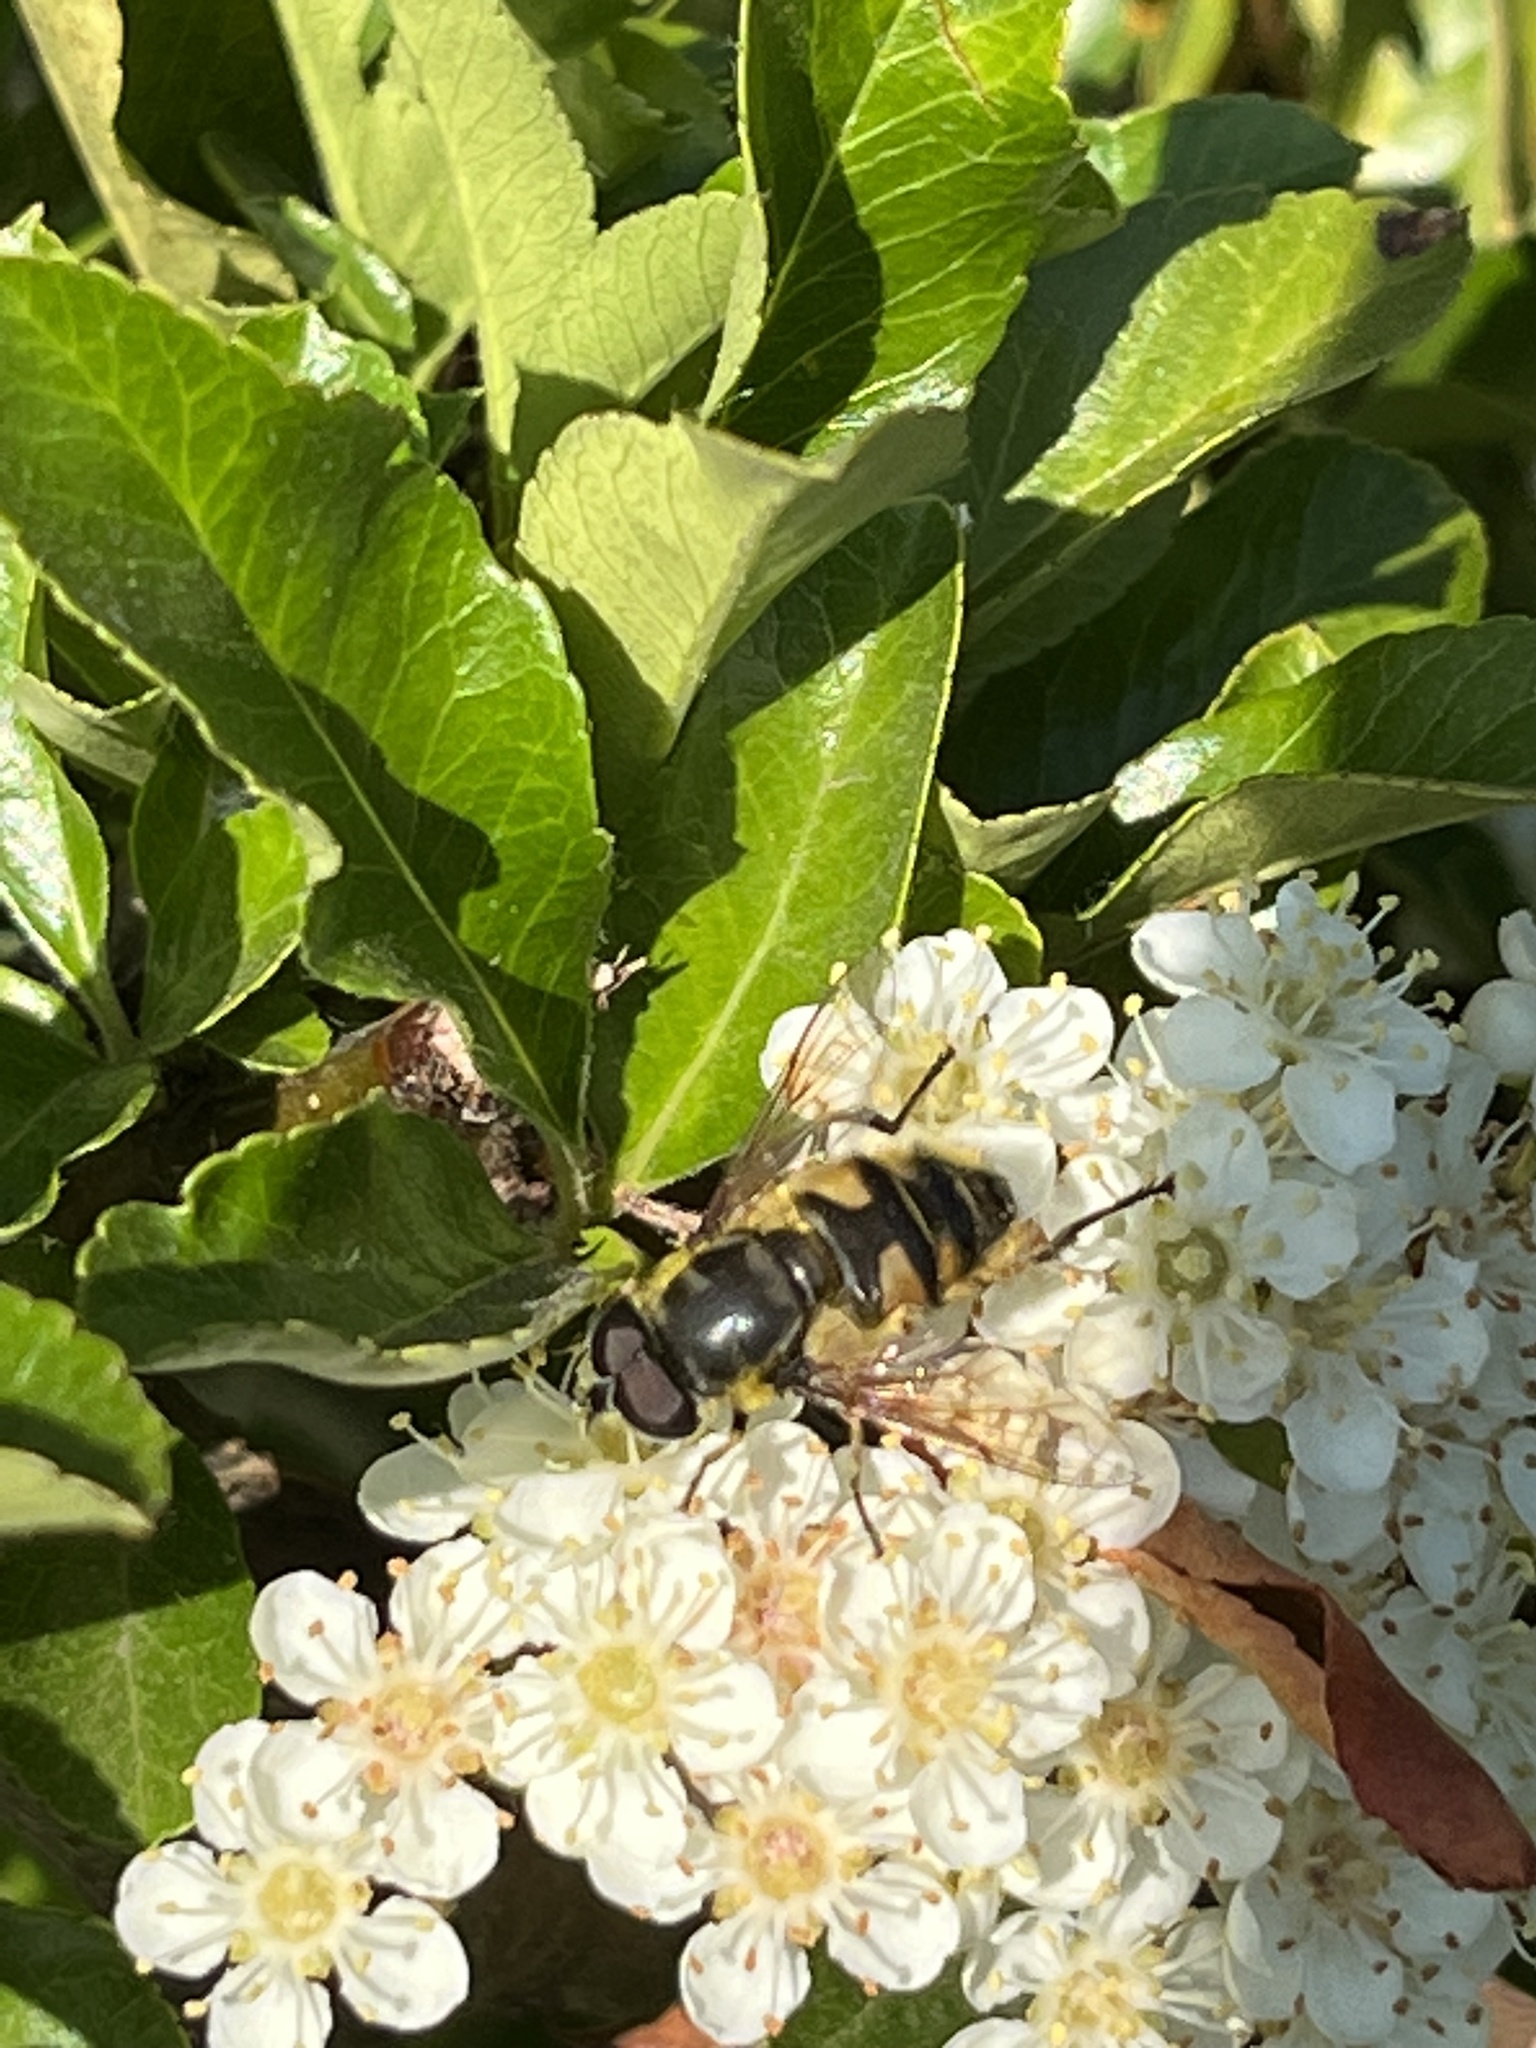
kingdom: Animalia
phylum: Arthropoda
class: Insecta
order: Diptera
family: Syrphidae
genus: Myathropa
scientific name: Myathropa florea
